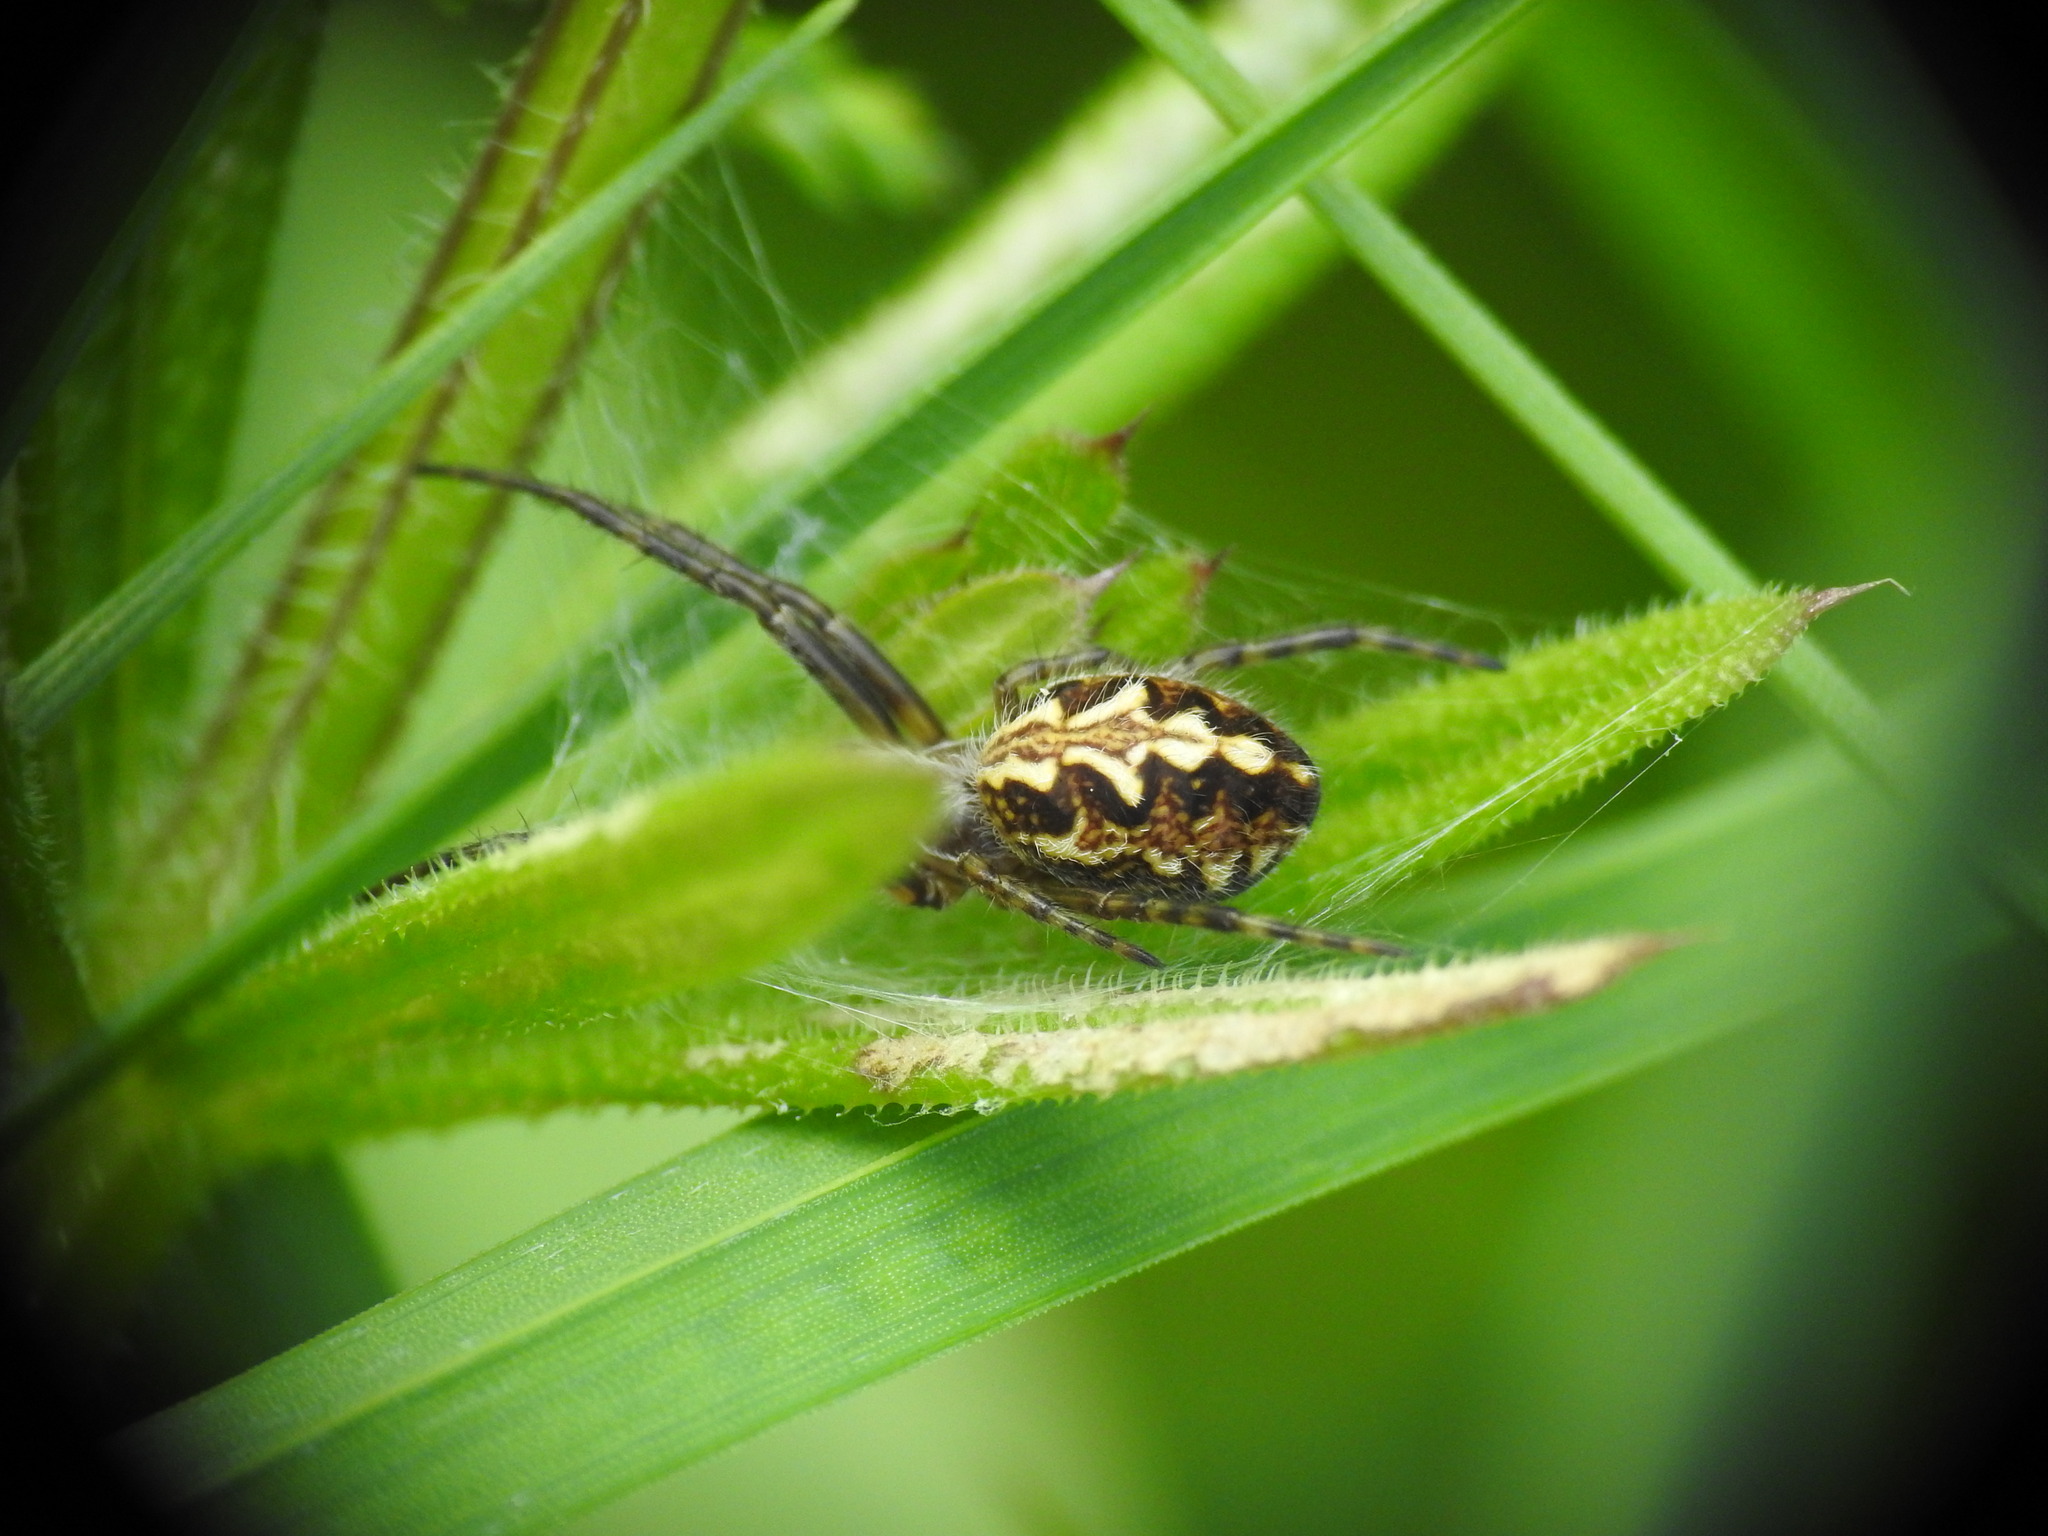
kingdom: Animalia
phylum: Arthropoda
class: Arachnida
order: Araneae
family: Araneidae
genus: Aculepeira
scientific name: Aculepeira ceropegia
